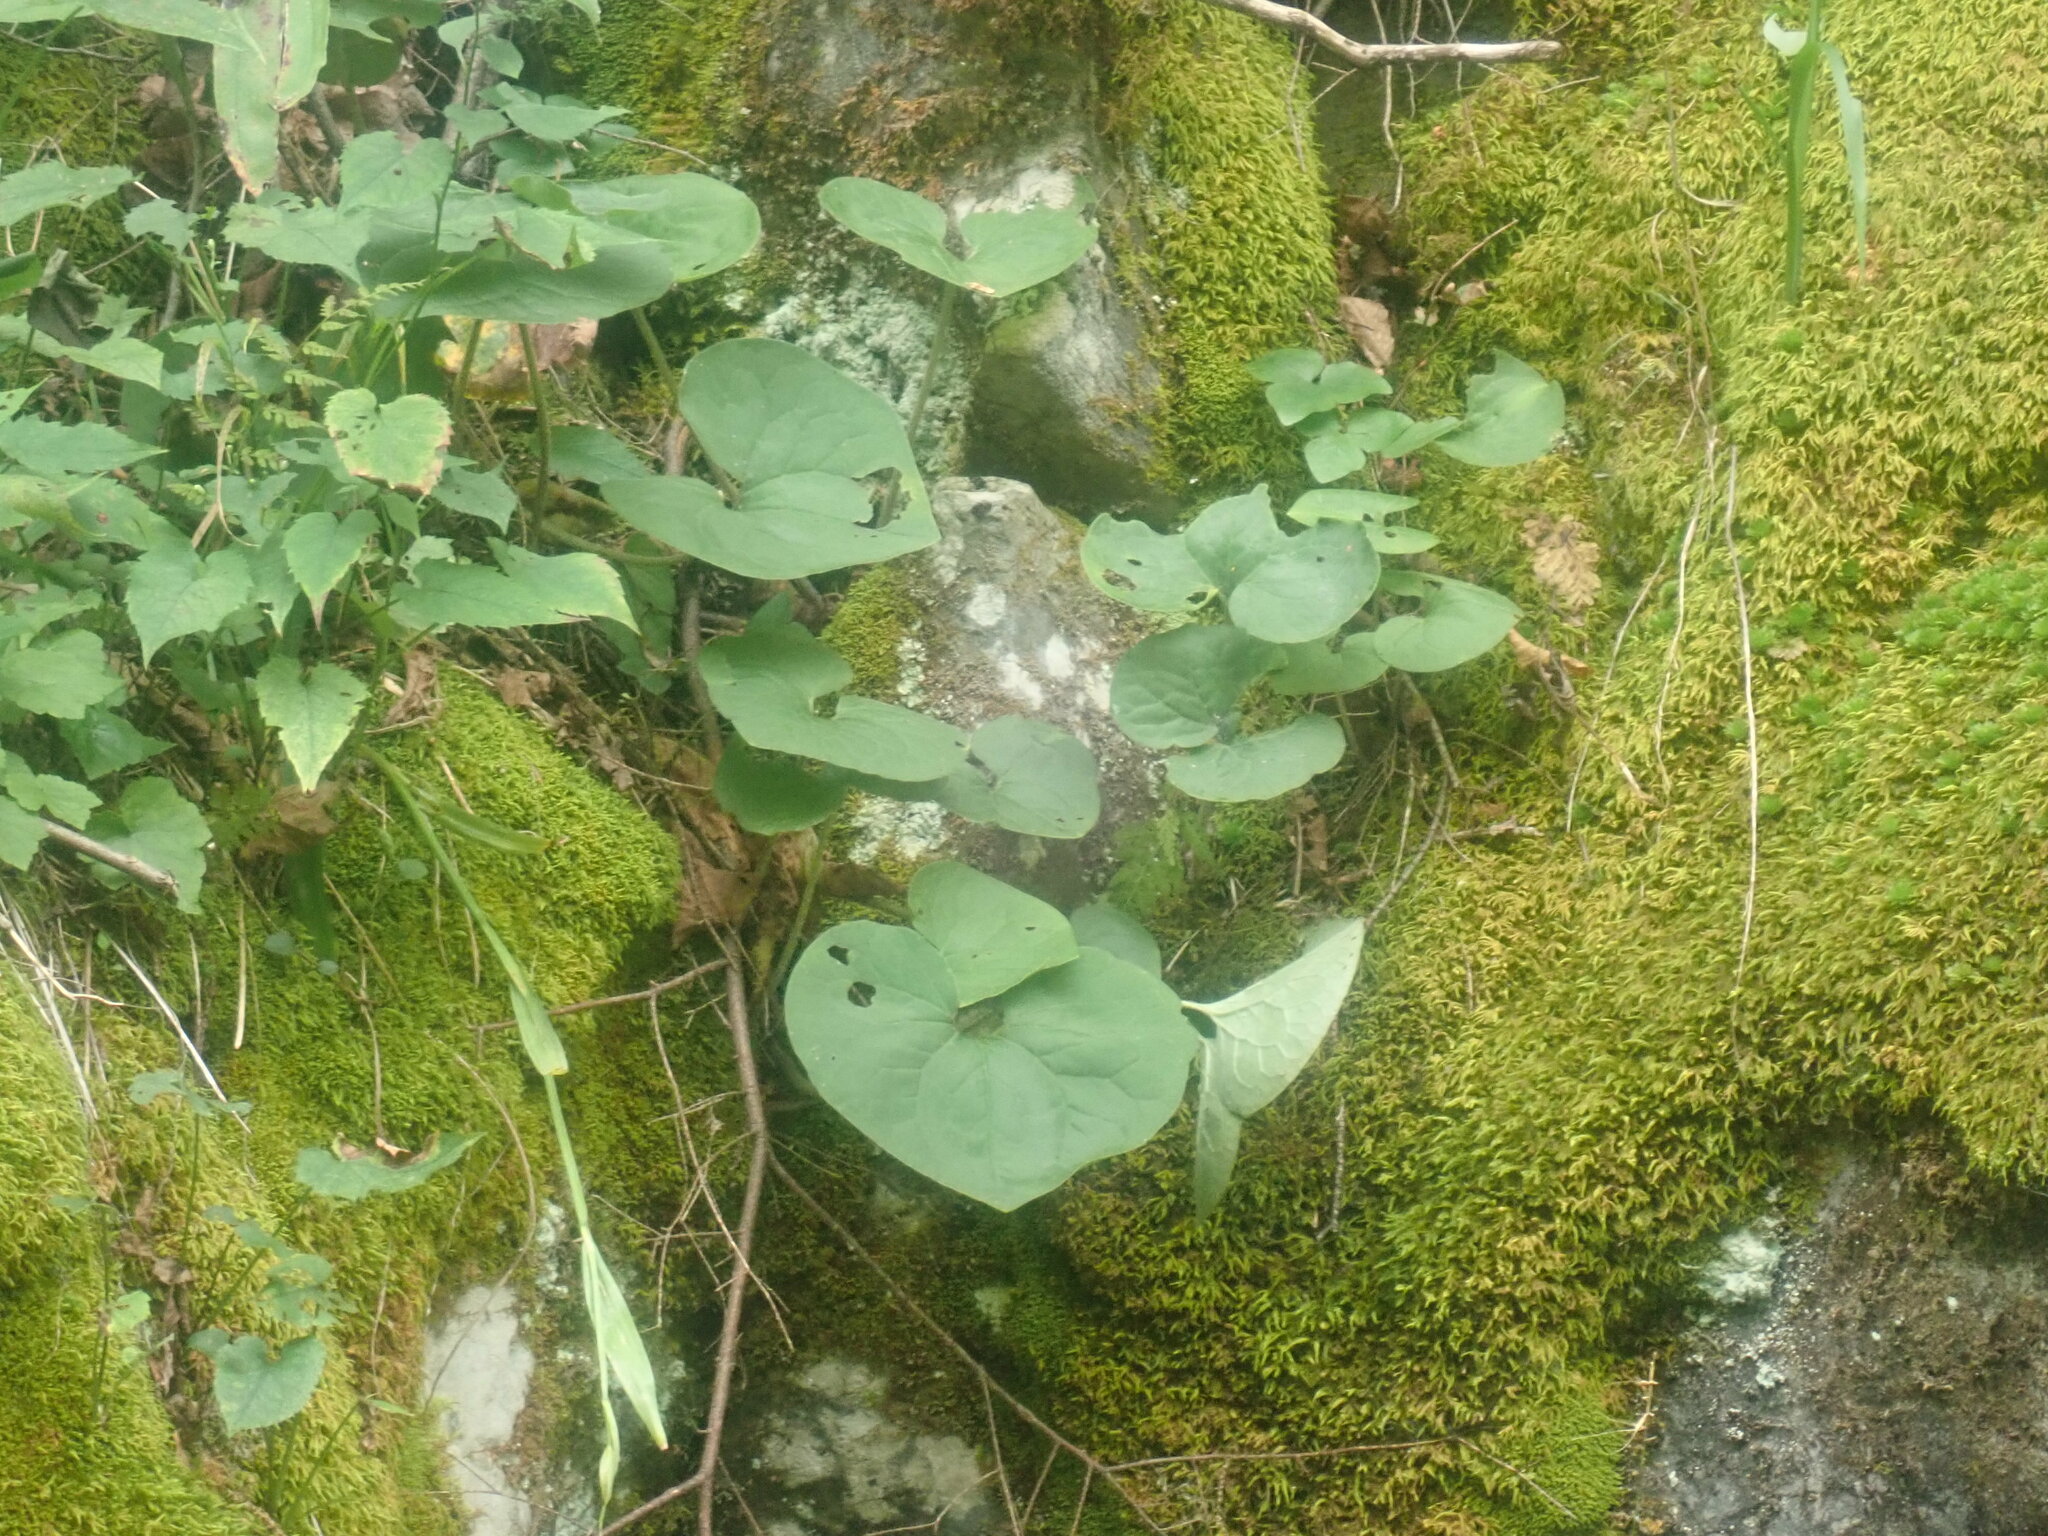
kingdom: Plantae
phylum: Tracheophyta
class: Magnoliopsida
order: Piperales
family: Aristolochiaceae
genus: Asarum
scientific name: Asarum canadense
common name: Wild ginger
